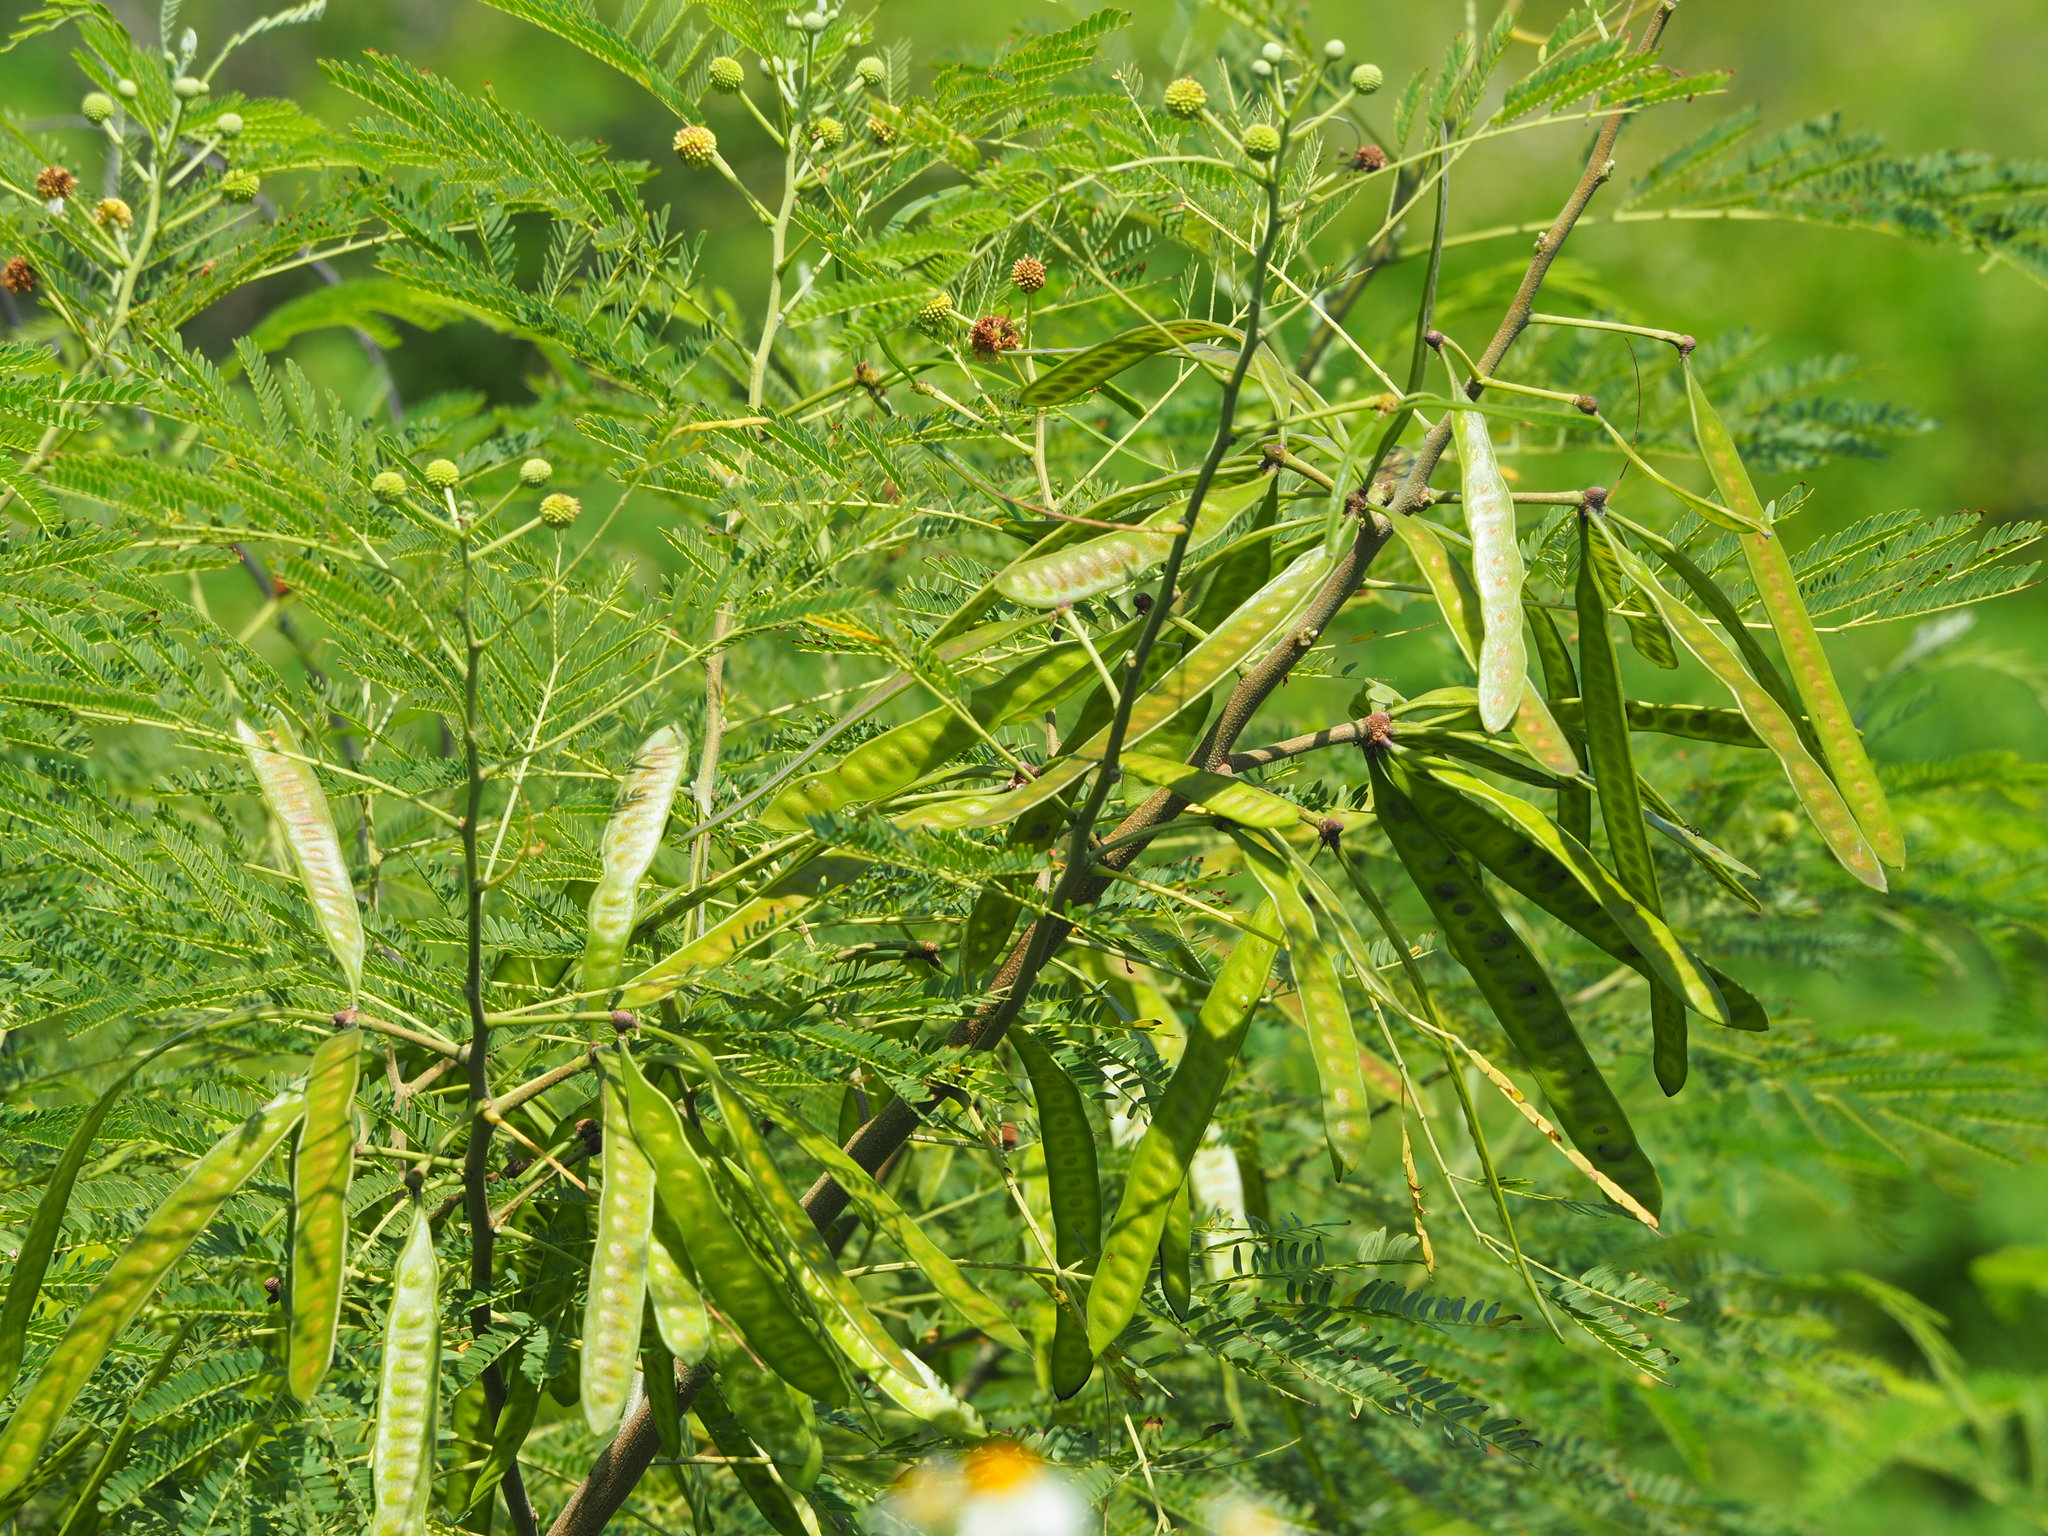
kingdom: Plantae
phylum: Tracheophyta
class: Magnoliopsida
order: Fabales
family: Fabaceae
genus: Leucaena
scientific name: Leucaena leucocephala
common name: White leadtree
